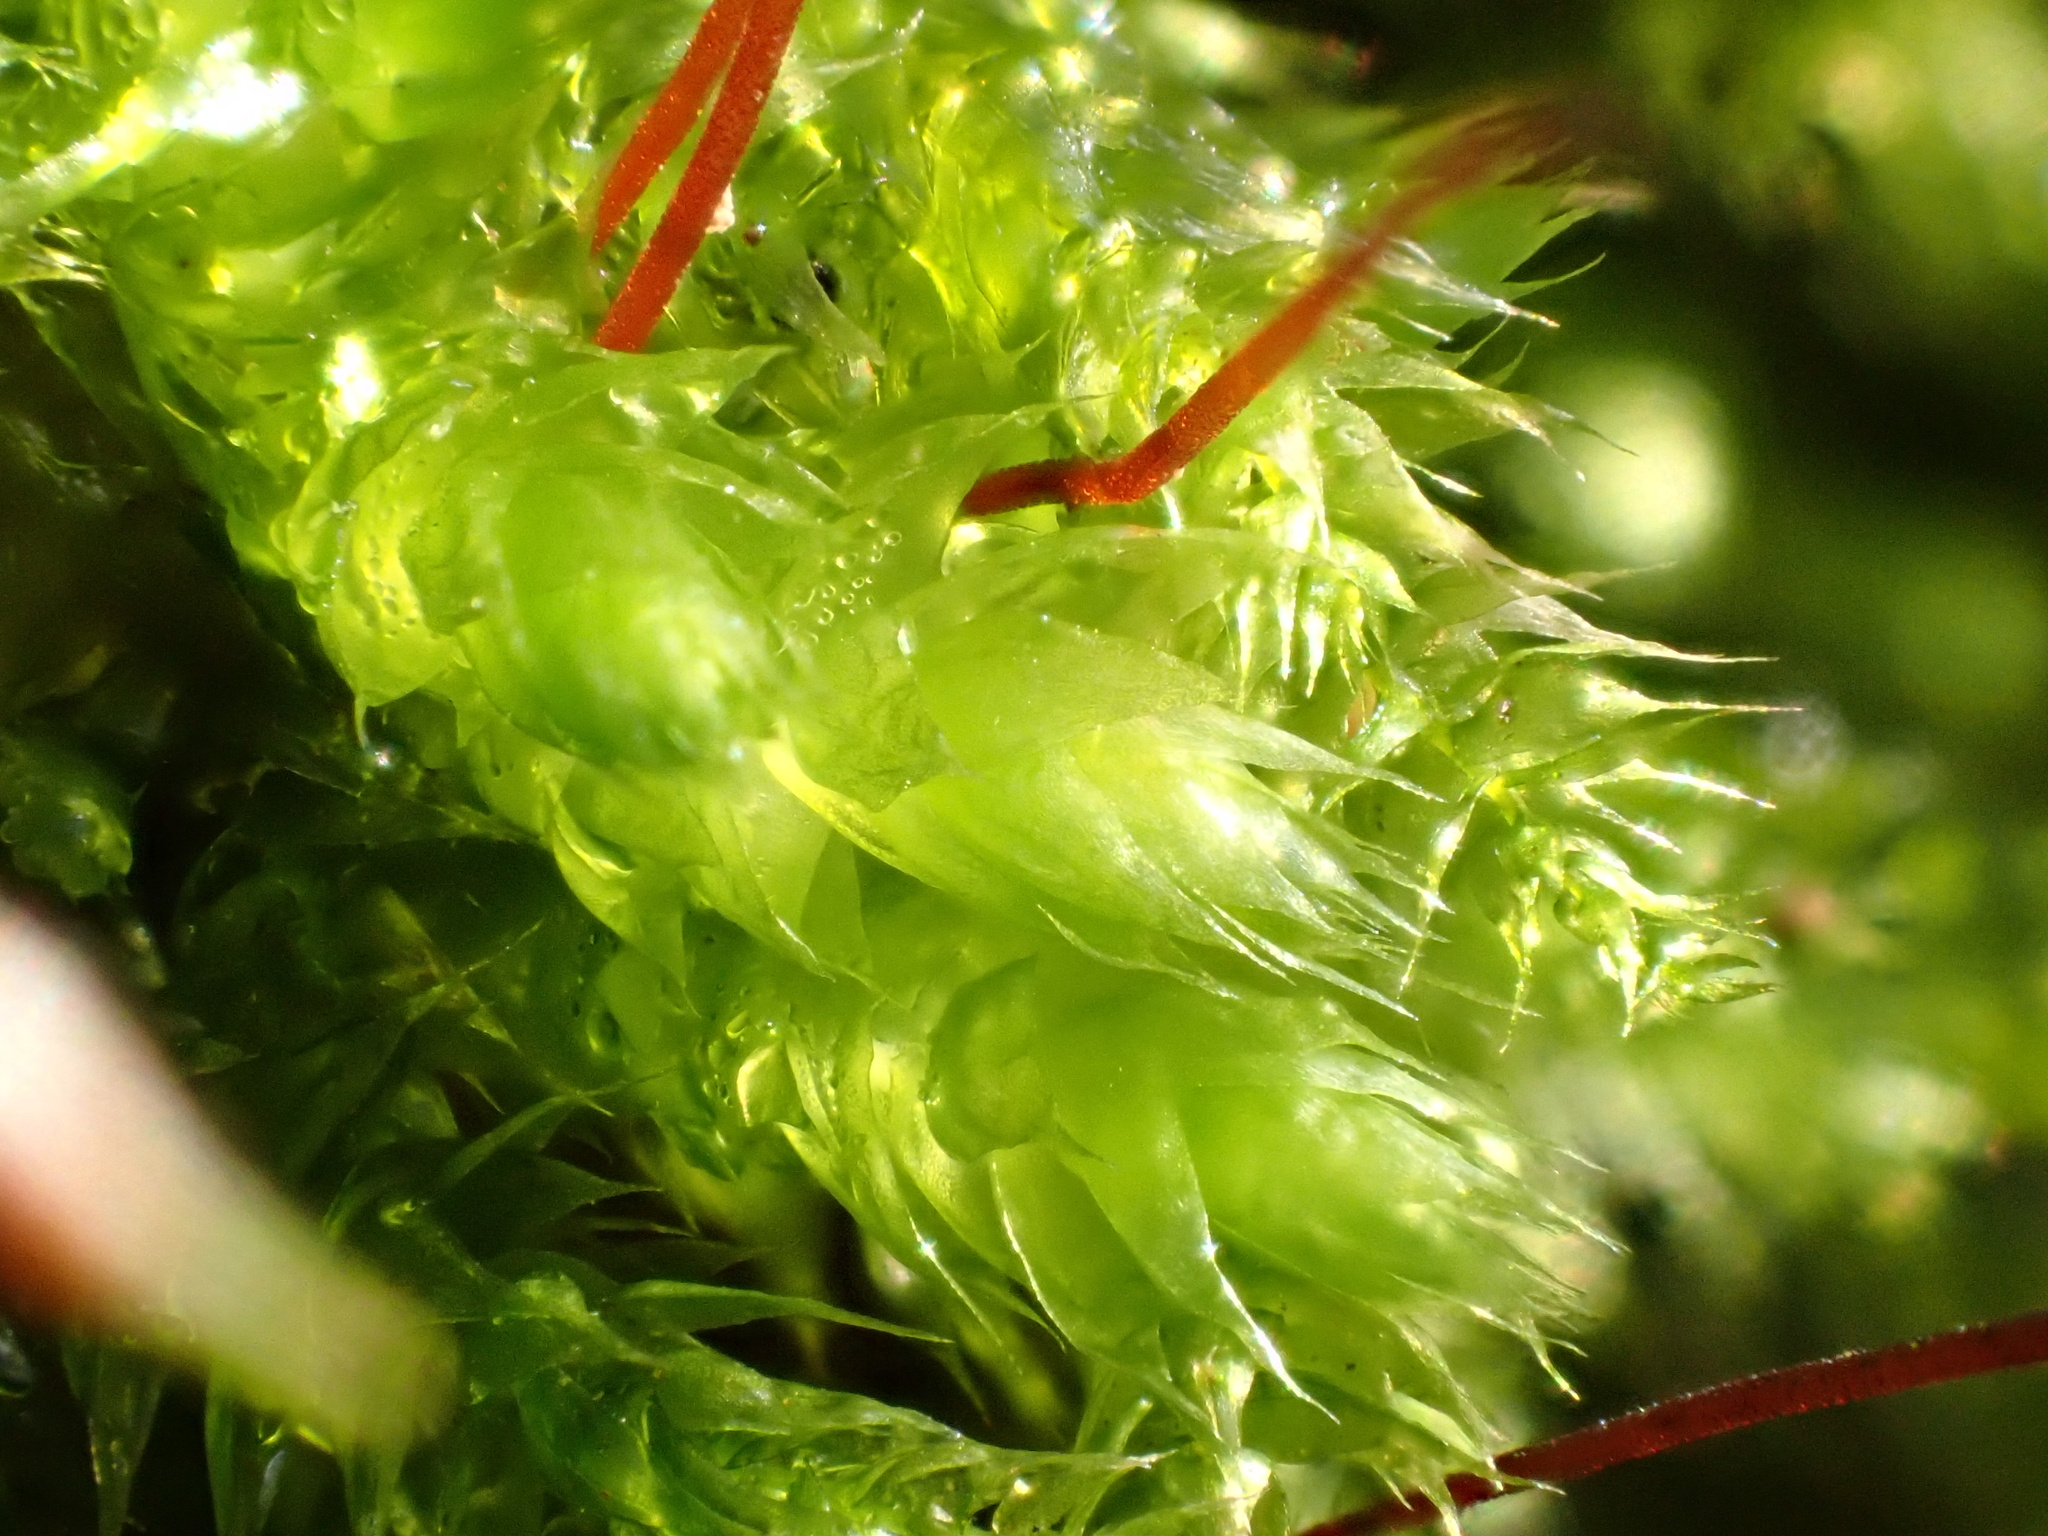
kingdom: Plantae
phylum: Bryophyta
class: Bryopsida
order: Hypnales
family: Brachytheciaceae
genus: Brachythecium
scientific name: Brachythecium rutabulum
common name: Rough-stalked feather-moss
